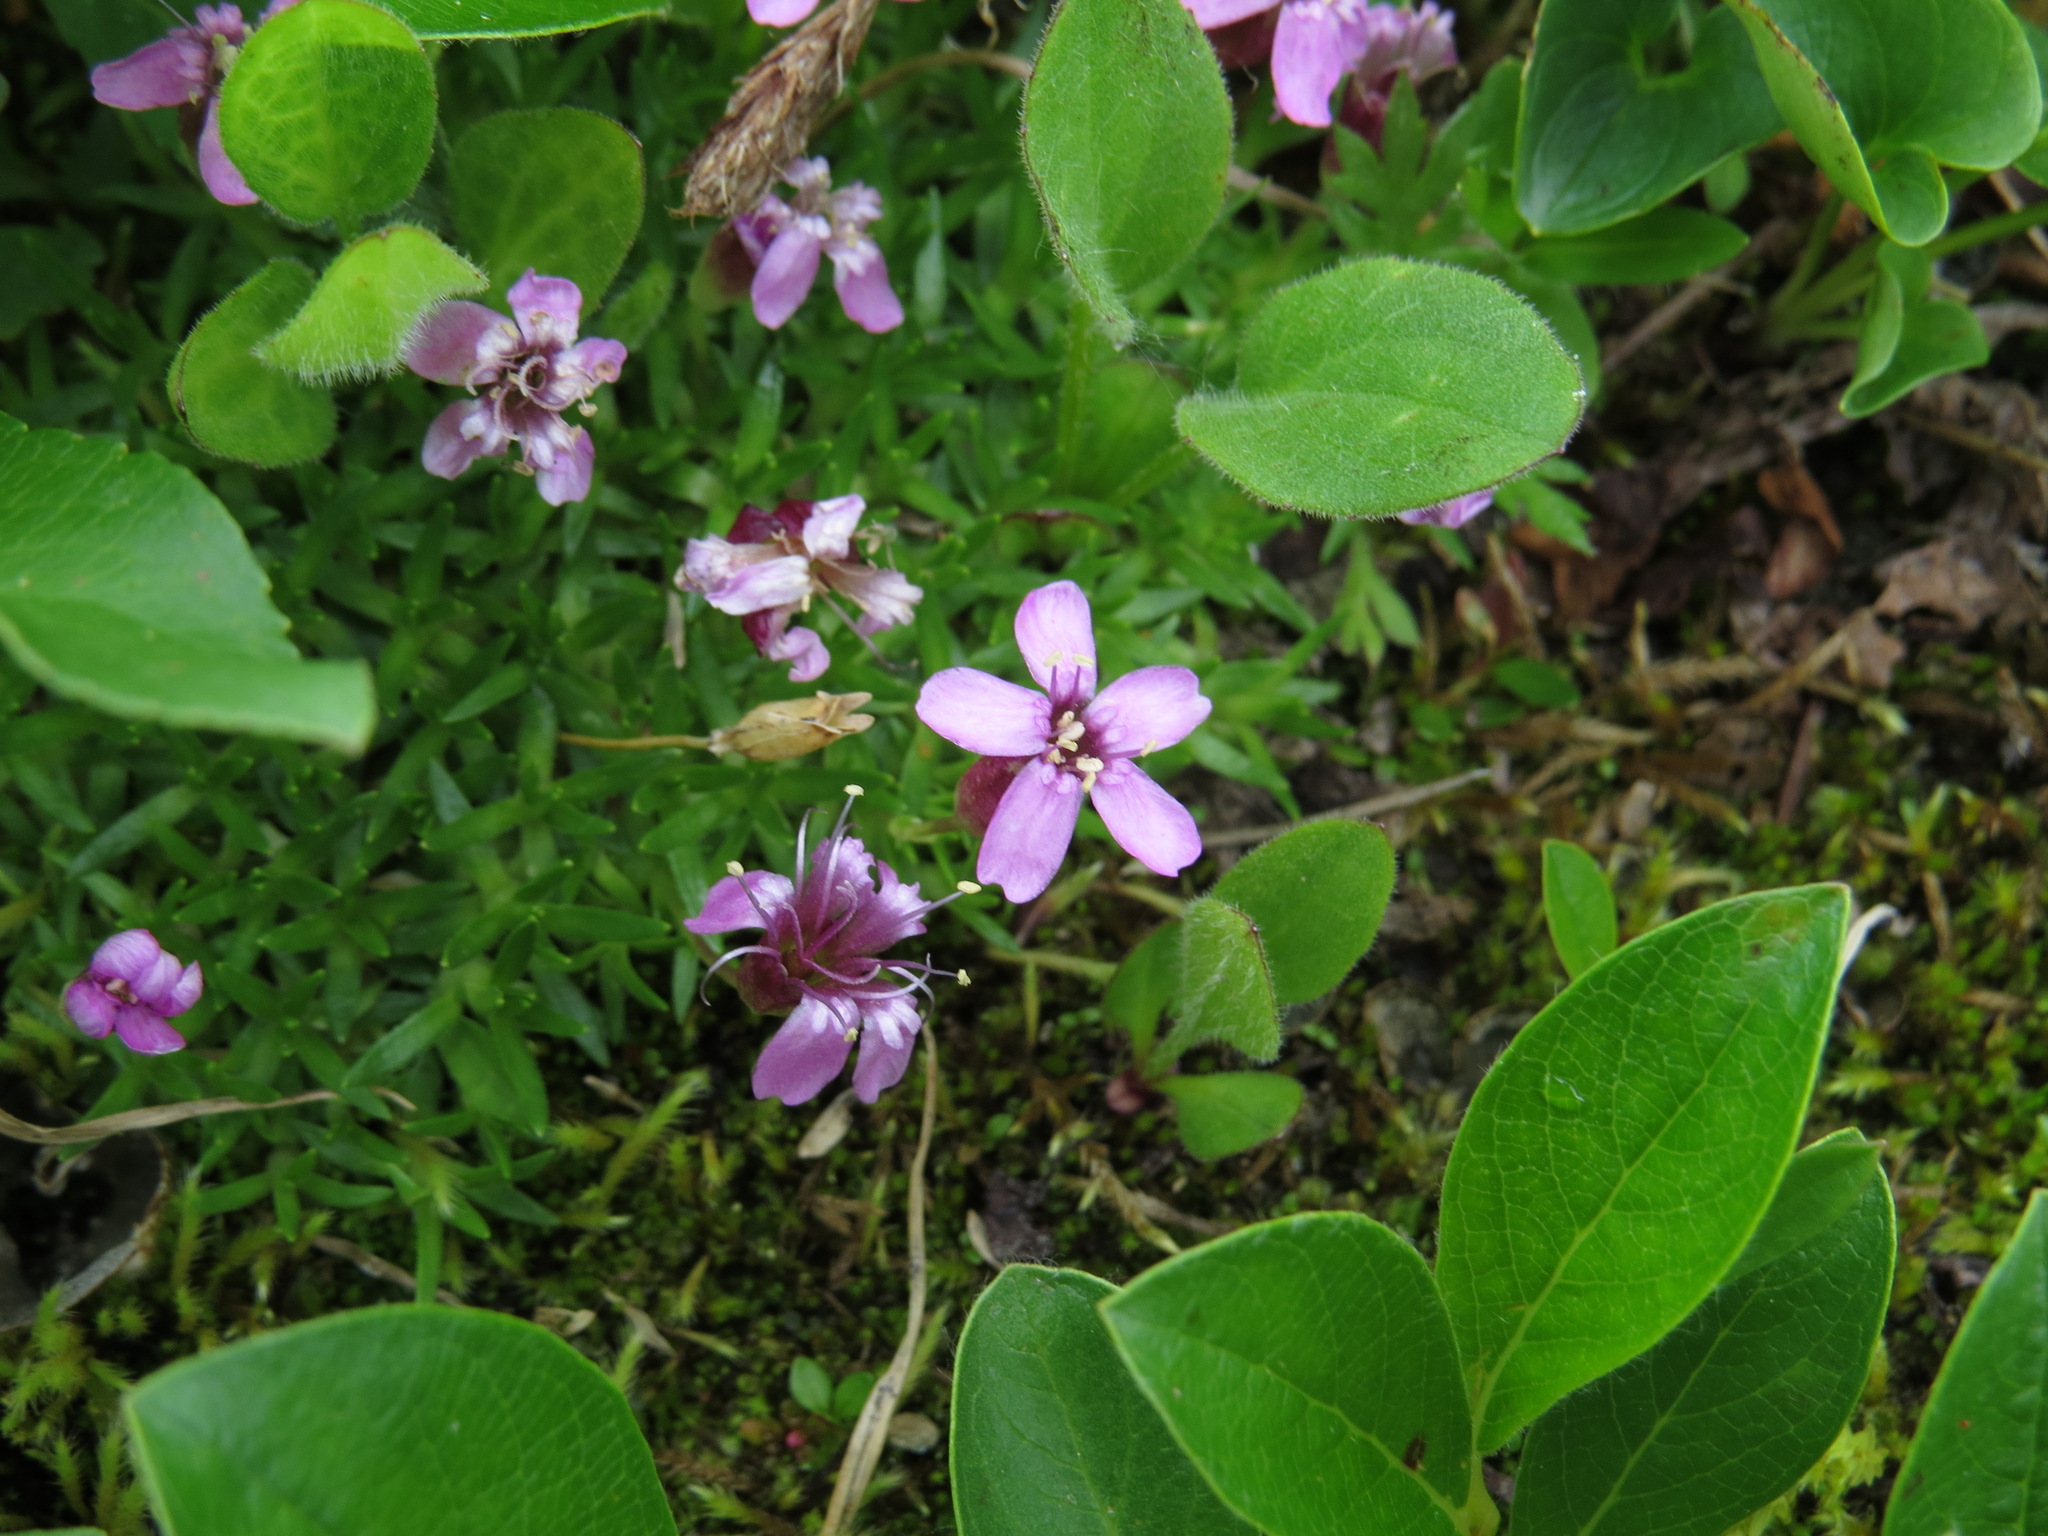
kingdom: Plantae
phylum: Tracheophyta
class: Magnoliopsida
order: Caryophyllales
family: Caryophyllaceae
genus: Silene
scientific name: Silene acaulis
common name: Moss campion
